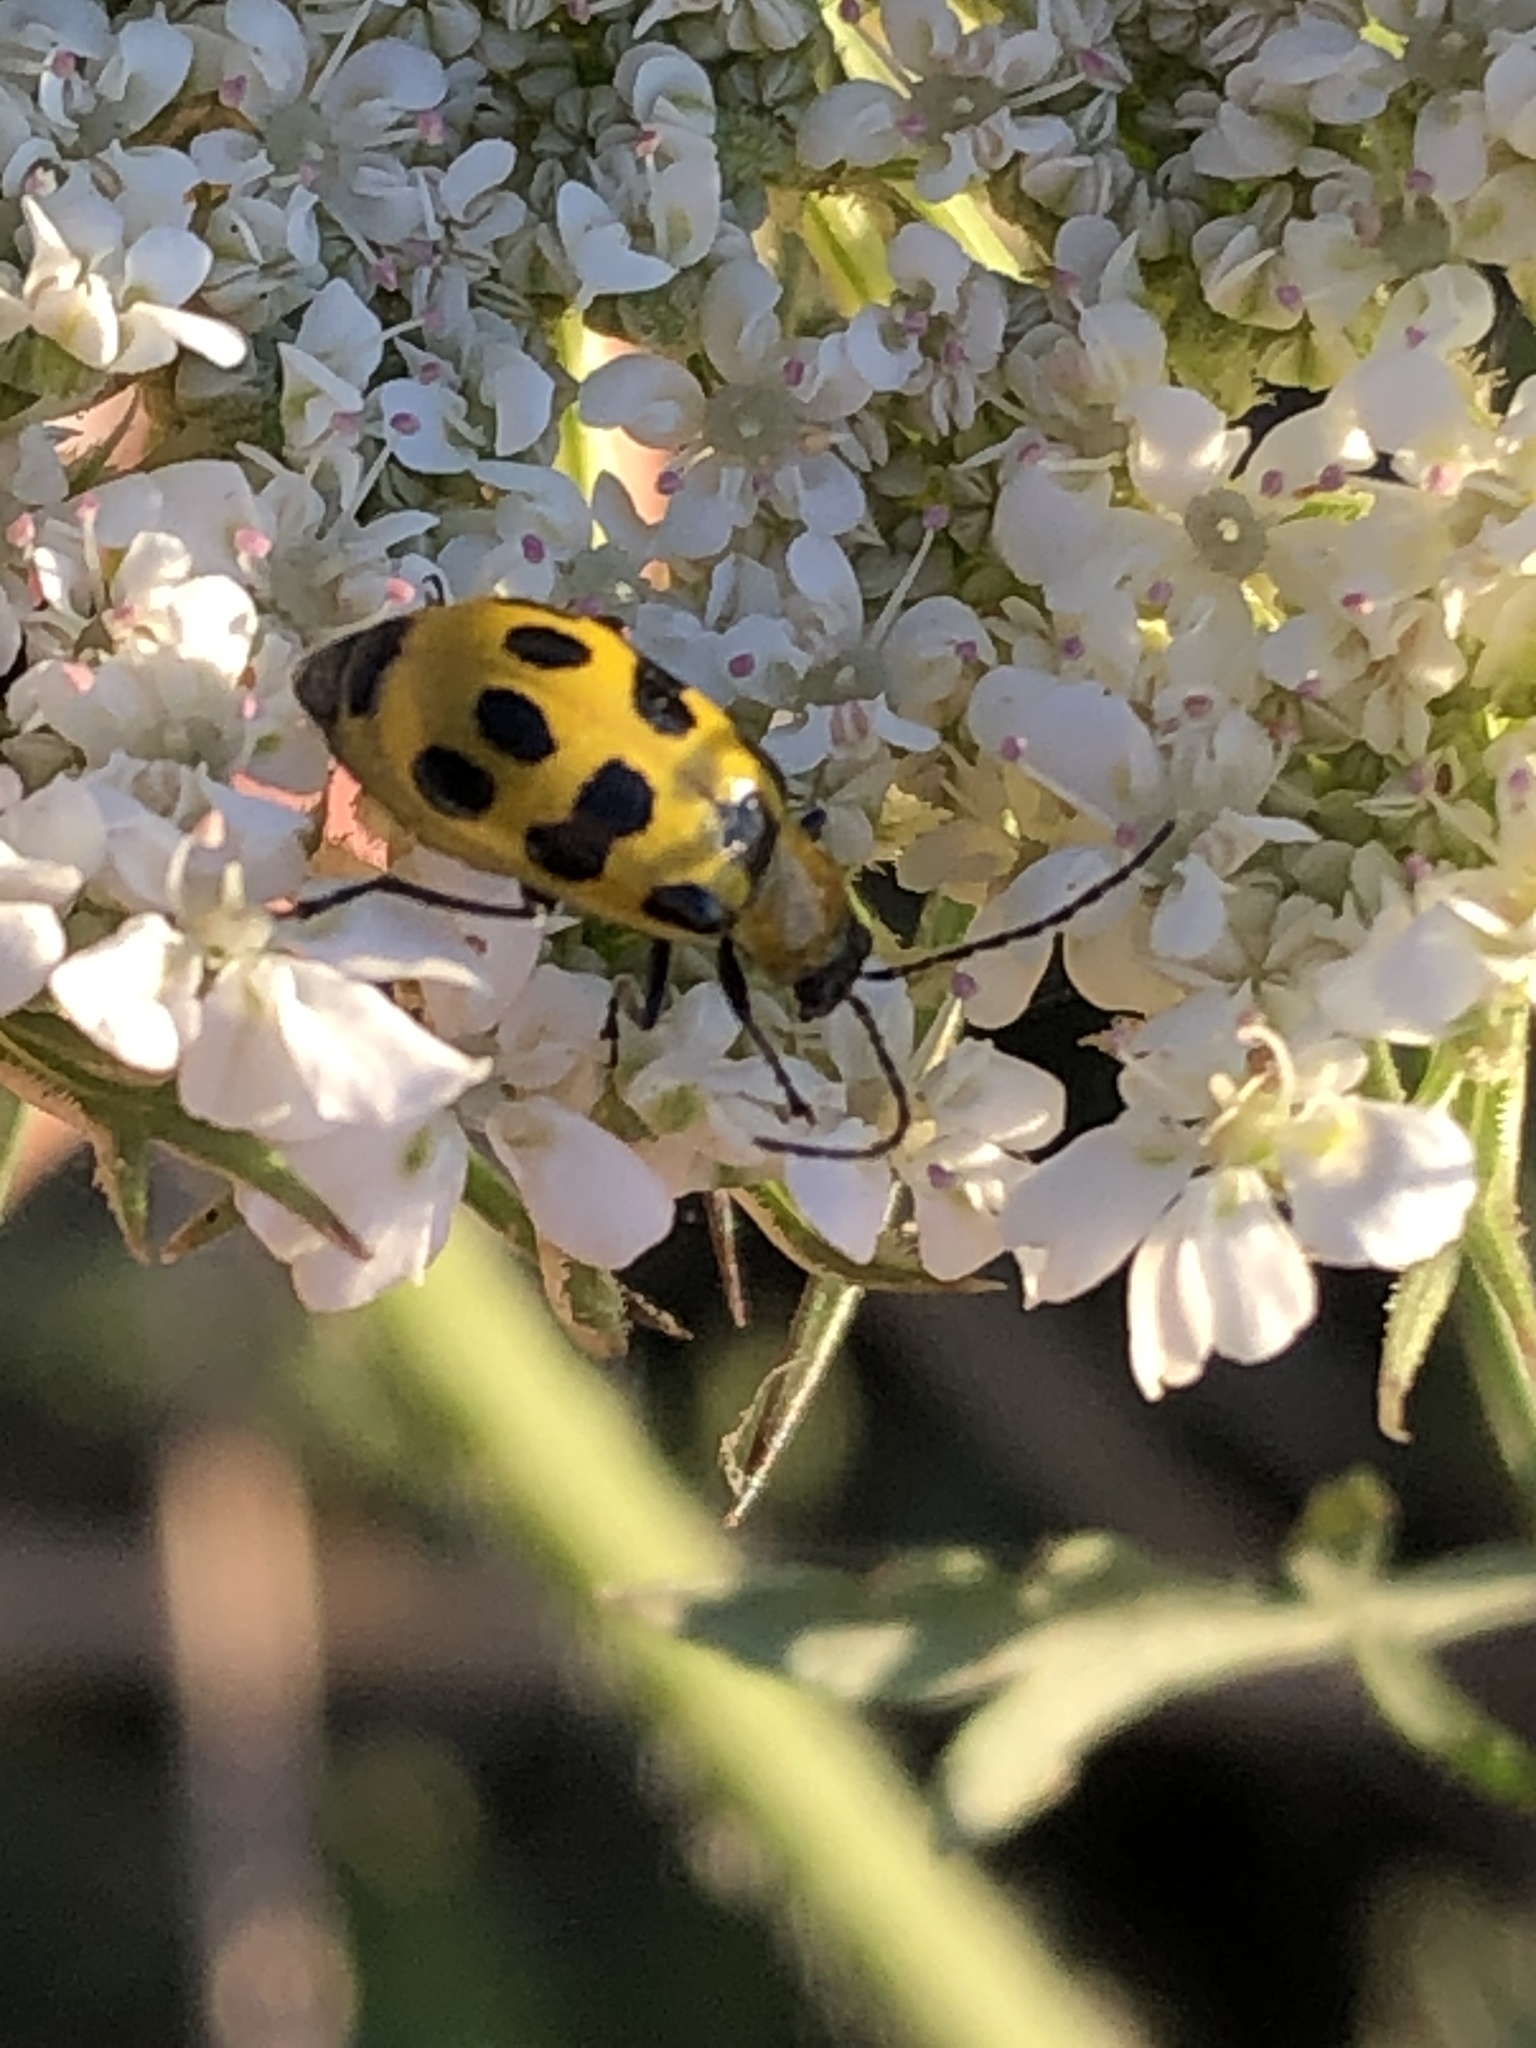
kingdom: Animalia
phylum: Arthropoda
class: Insecta
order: Coleoptera
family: Chrysomelidae
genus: Diabrotica
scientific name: Diabrotica undecimpunctata
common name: Spotted cucumber beetle
